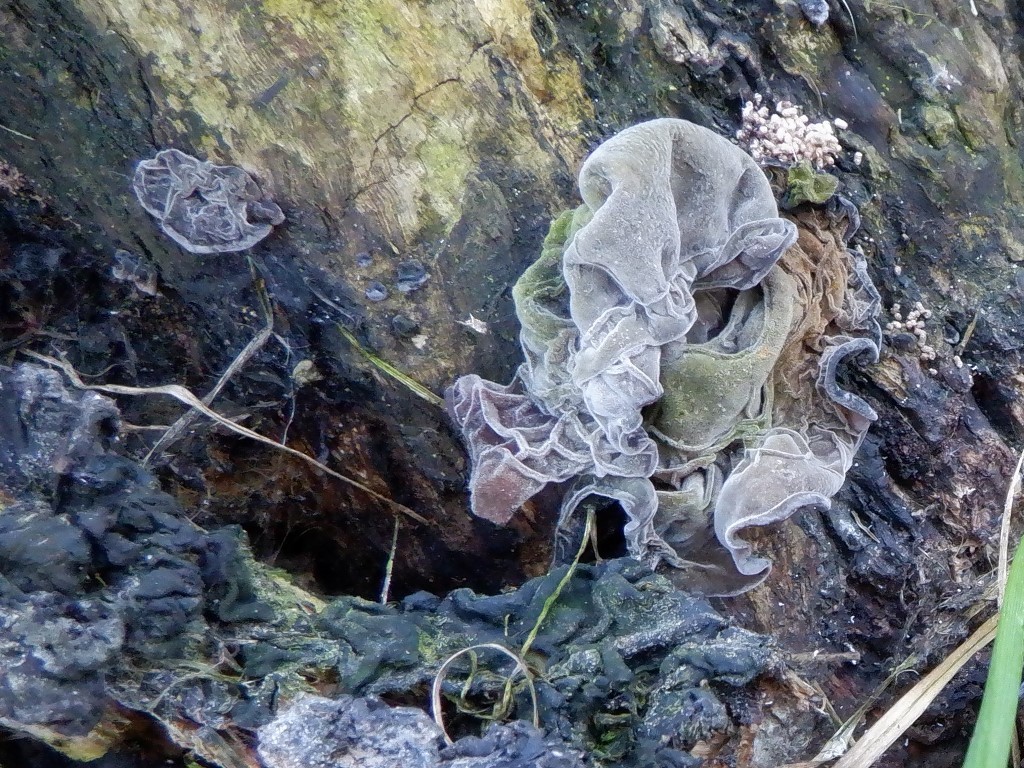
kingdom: Fungi
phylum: Basidiomycota
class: Agaricomycetes
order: Auriculariales
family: Auriculariaceae
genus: Auricularia
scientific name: Auricularia auricula-judae
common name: Jelly ear
